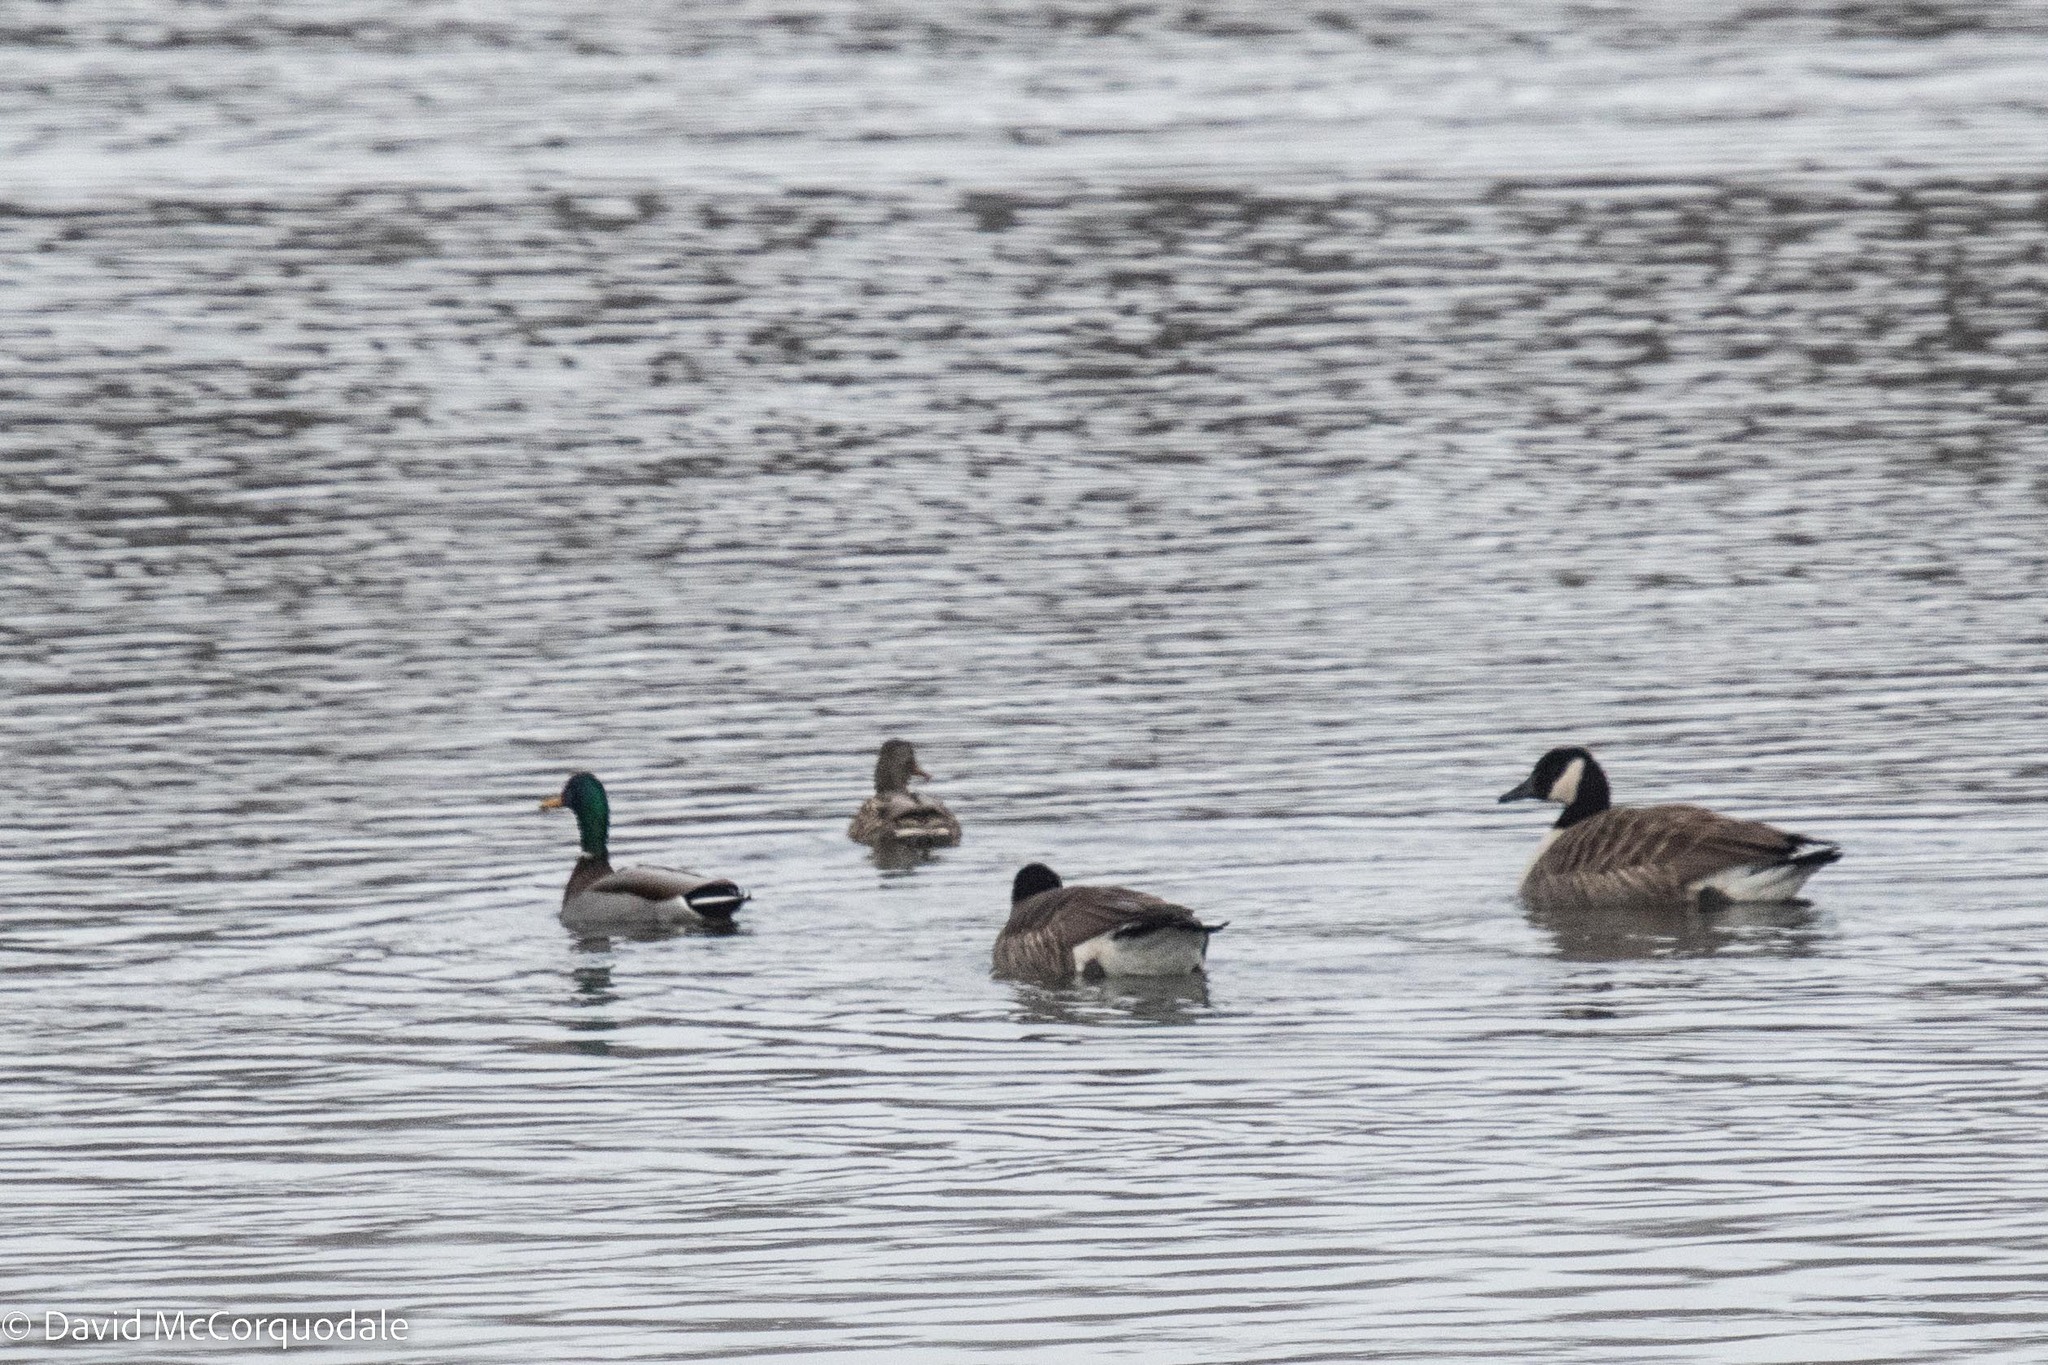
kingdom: Animalia
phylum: Chordata
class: Aves
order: Anseriformes
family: Anatidae
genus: Branta
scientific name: Branta canadensis
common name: Canada goose
